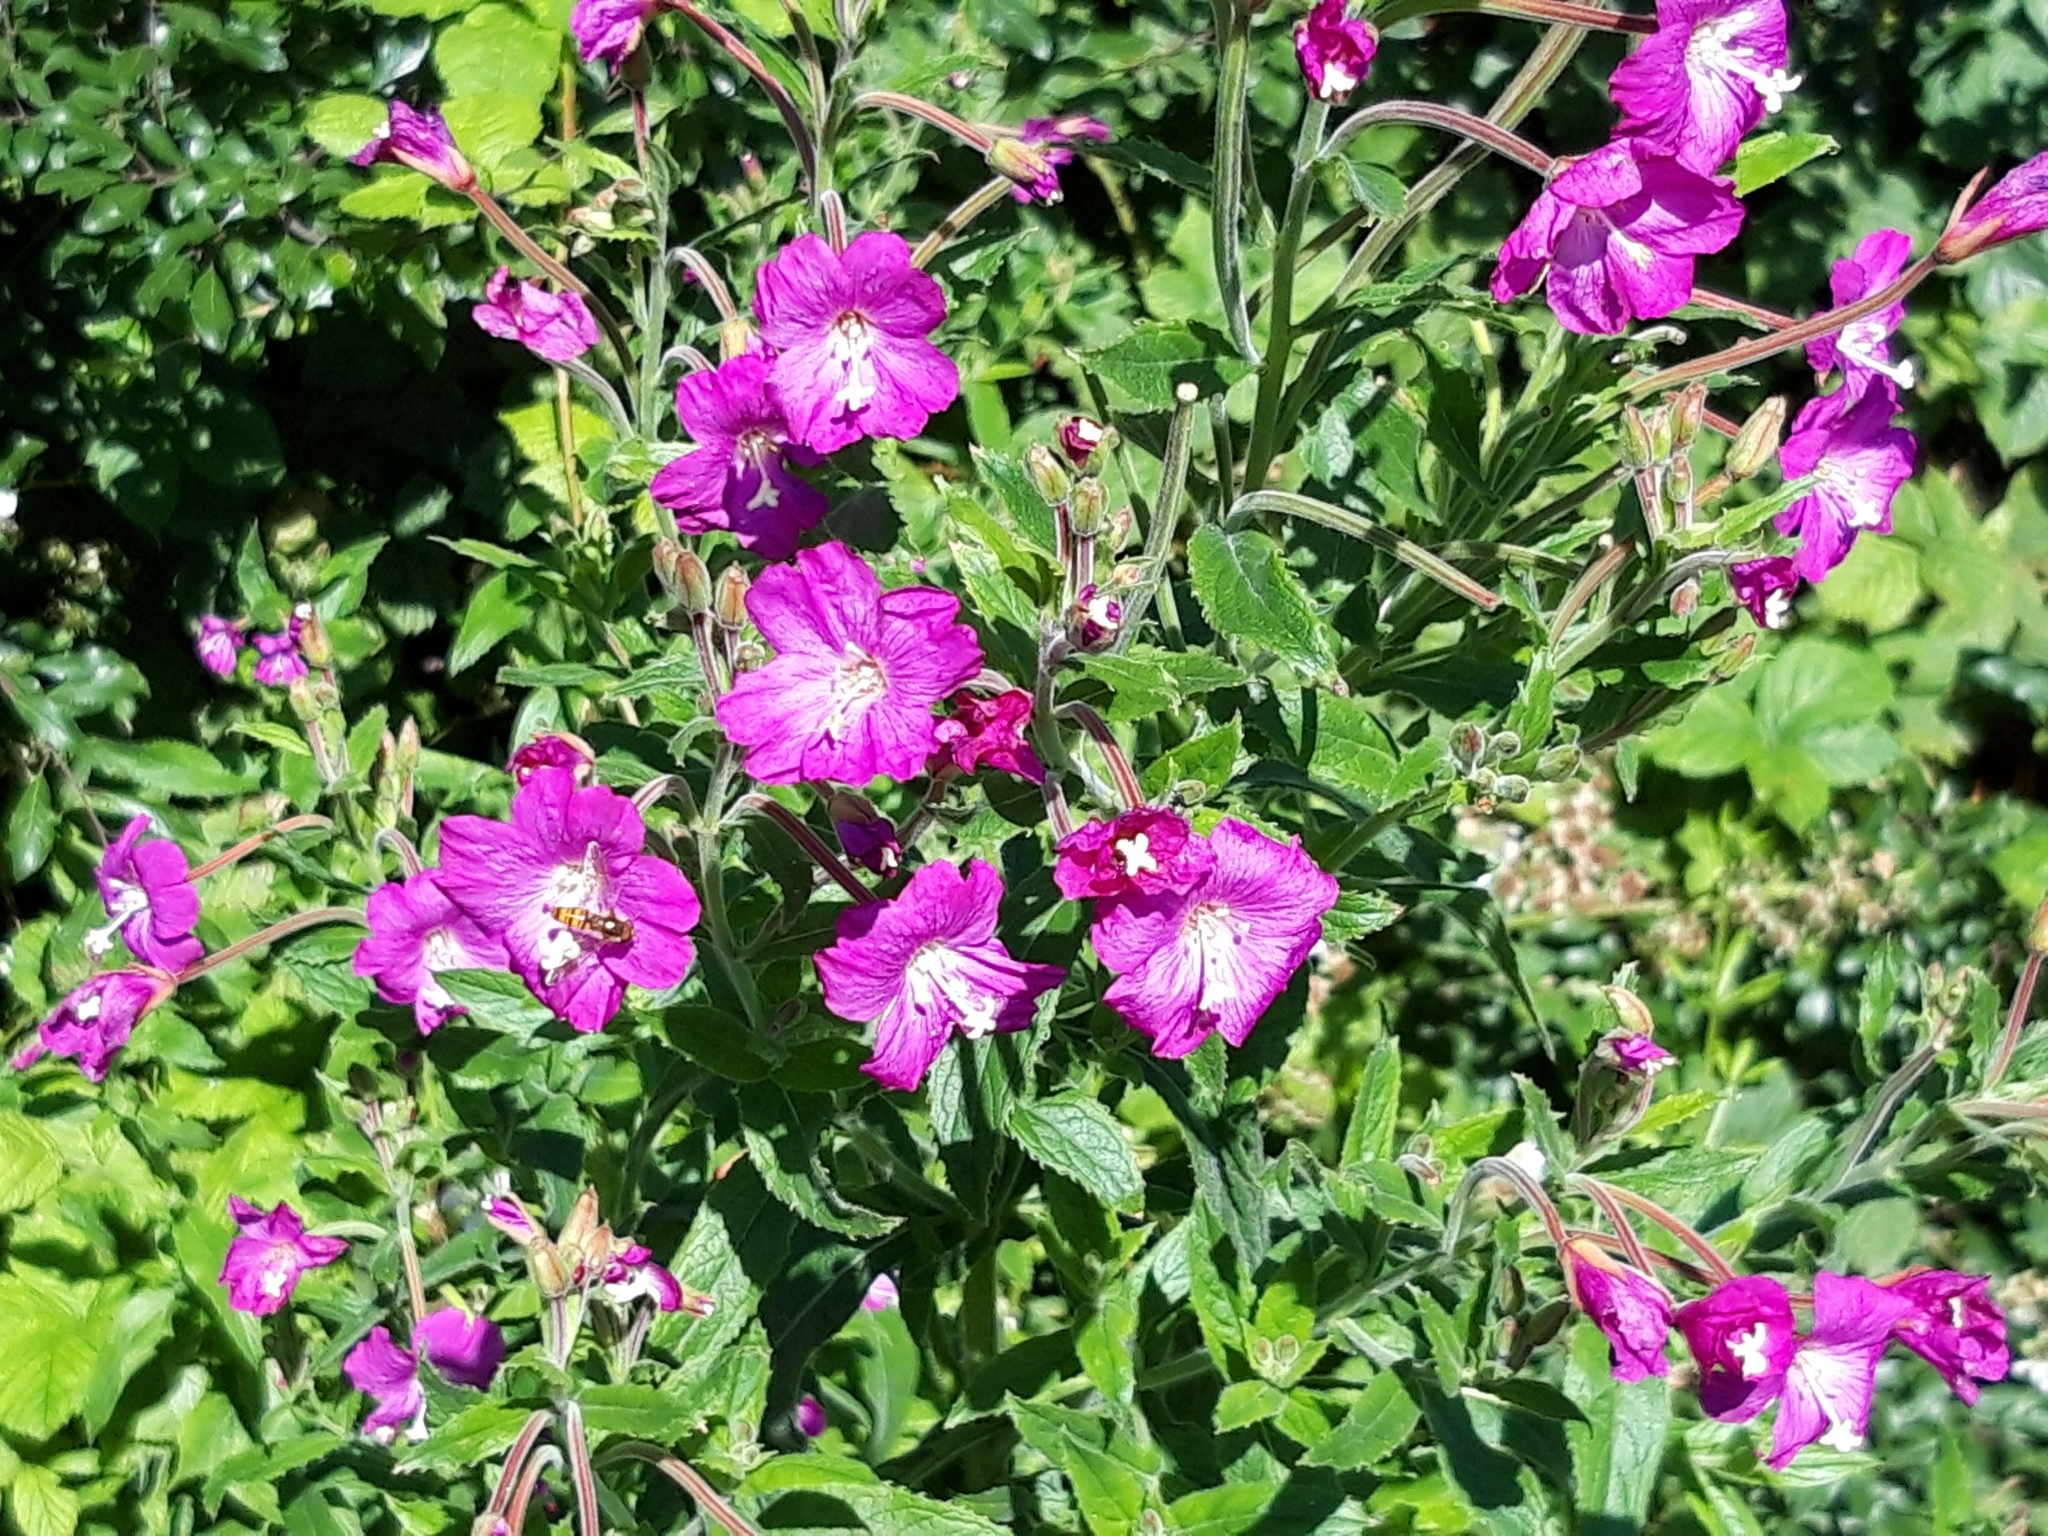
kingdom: Plantae
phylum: Tracheophyta
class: Magnoliopsida
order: Myrtales
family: Onagraceae
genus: Epilobium
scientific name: Epilobium hirsutum
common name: Great willowherb
